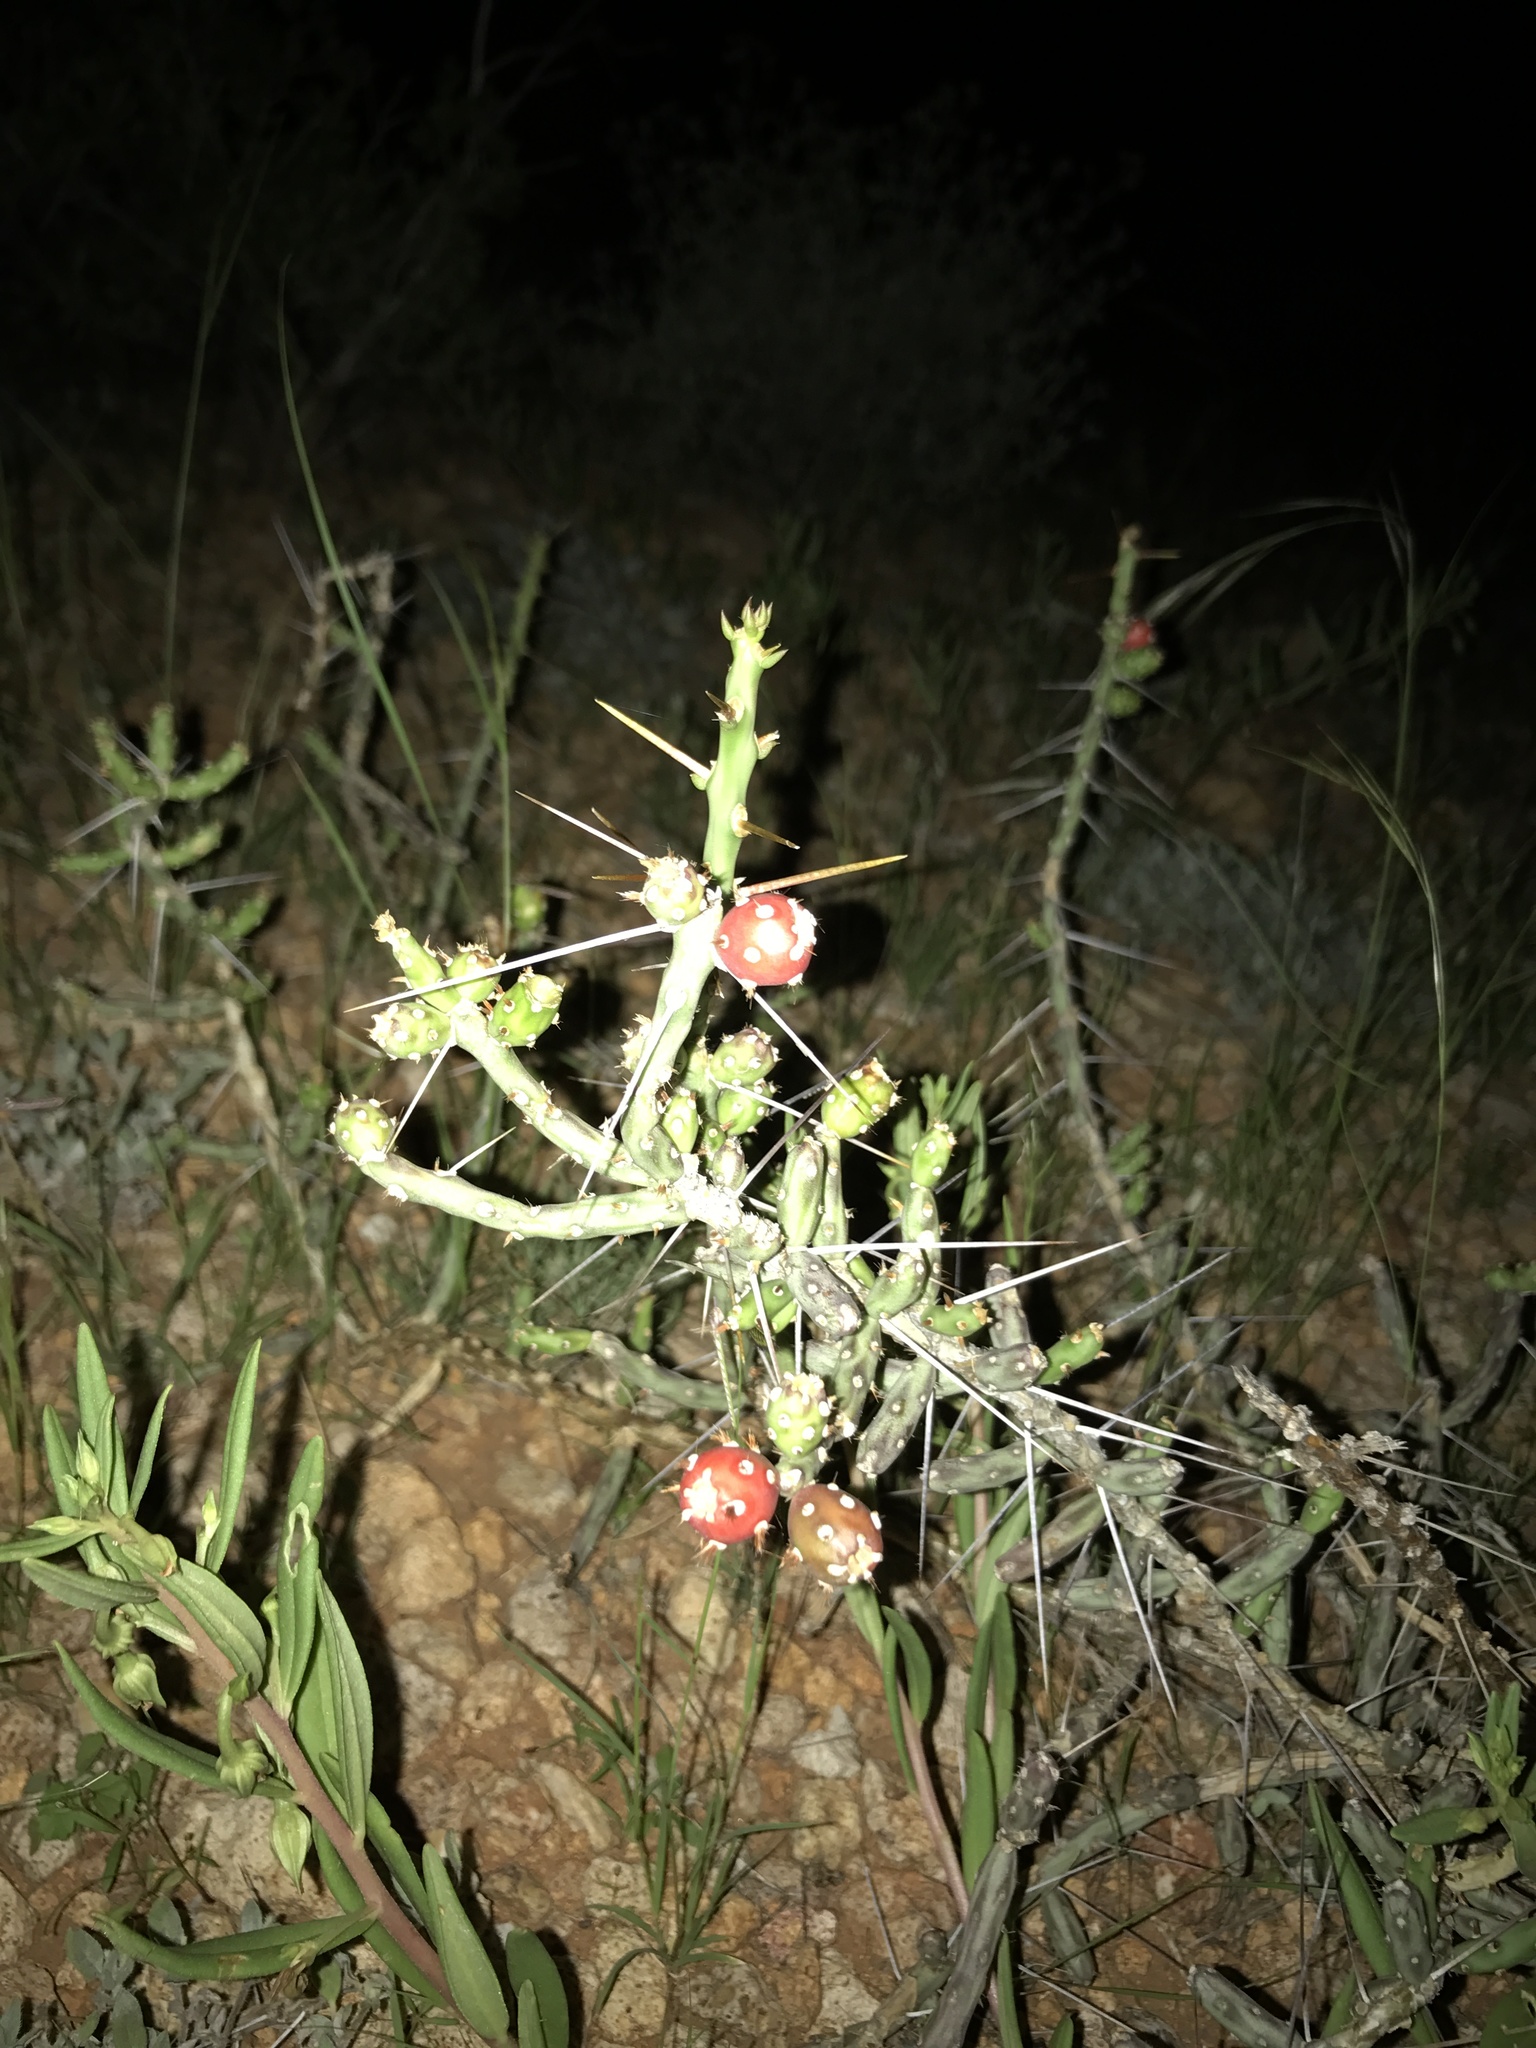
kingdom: Plantae
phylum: Tracheophyta
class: Magnoliopsida
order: Caryophyllales
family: Cactaceae
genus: Cylindropuntia
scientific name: Cylindropuntia leptocaulis
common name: Christmas cactus
